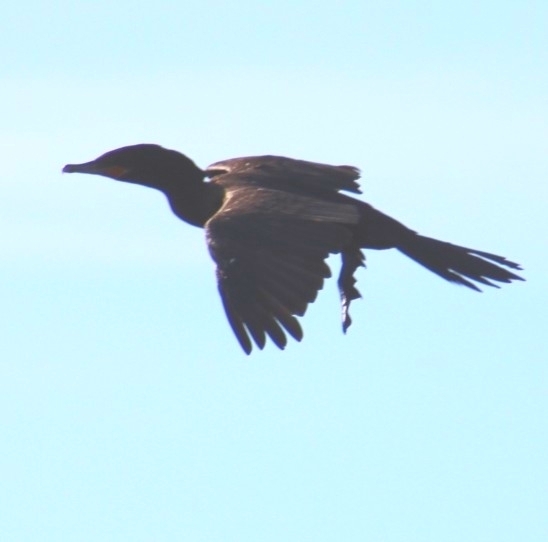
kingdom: Animalia
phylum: Chordata
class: Aves
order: Suliformes
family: Phalacrocoracidae
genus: Phalacrocorax
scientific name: Phalacrocorax brasilianus
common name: Neotropic cormorant
